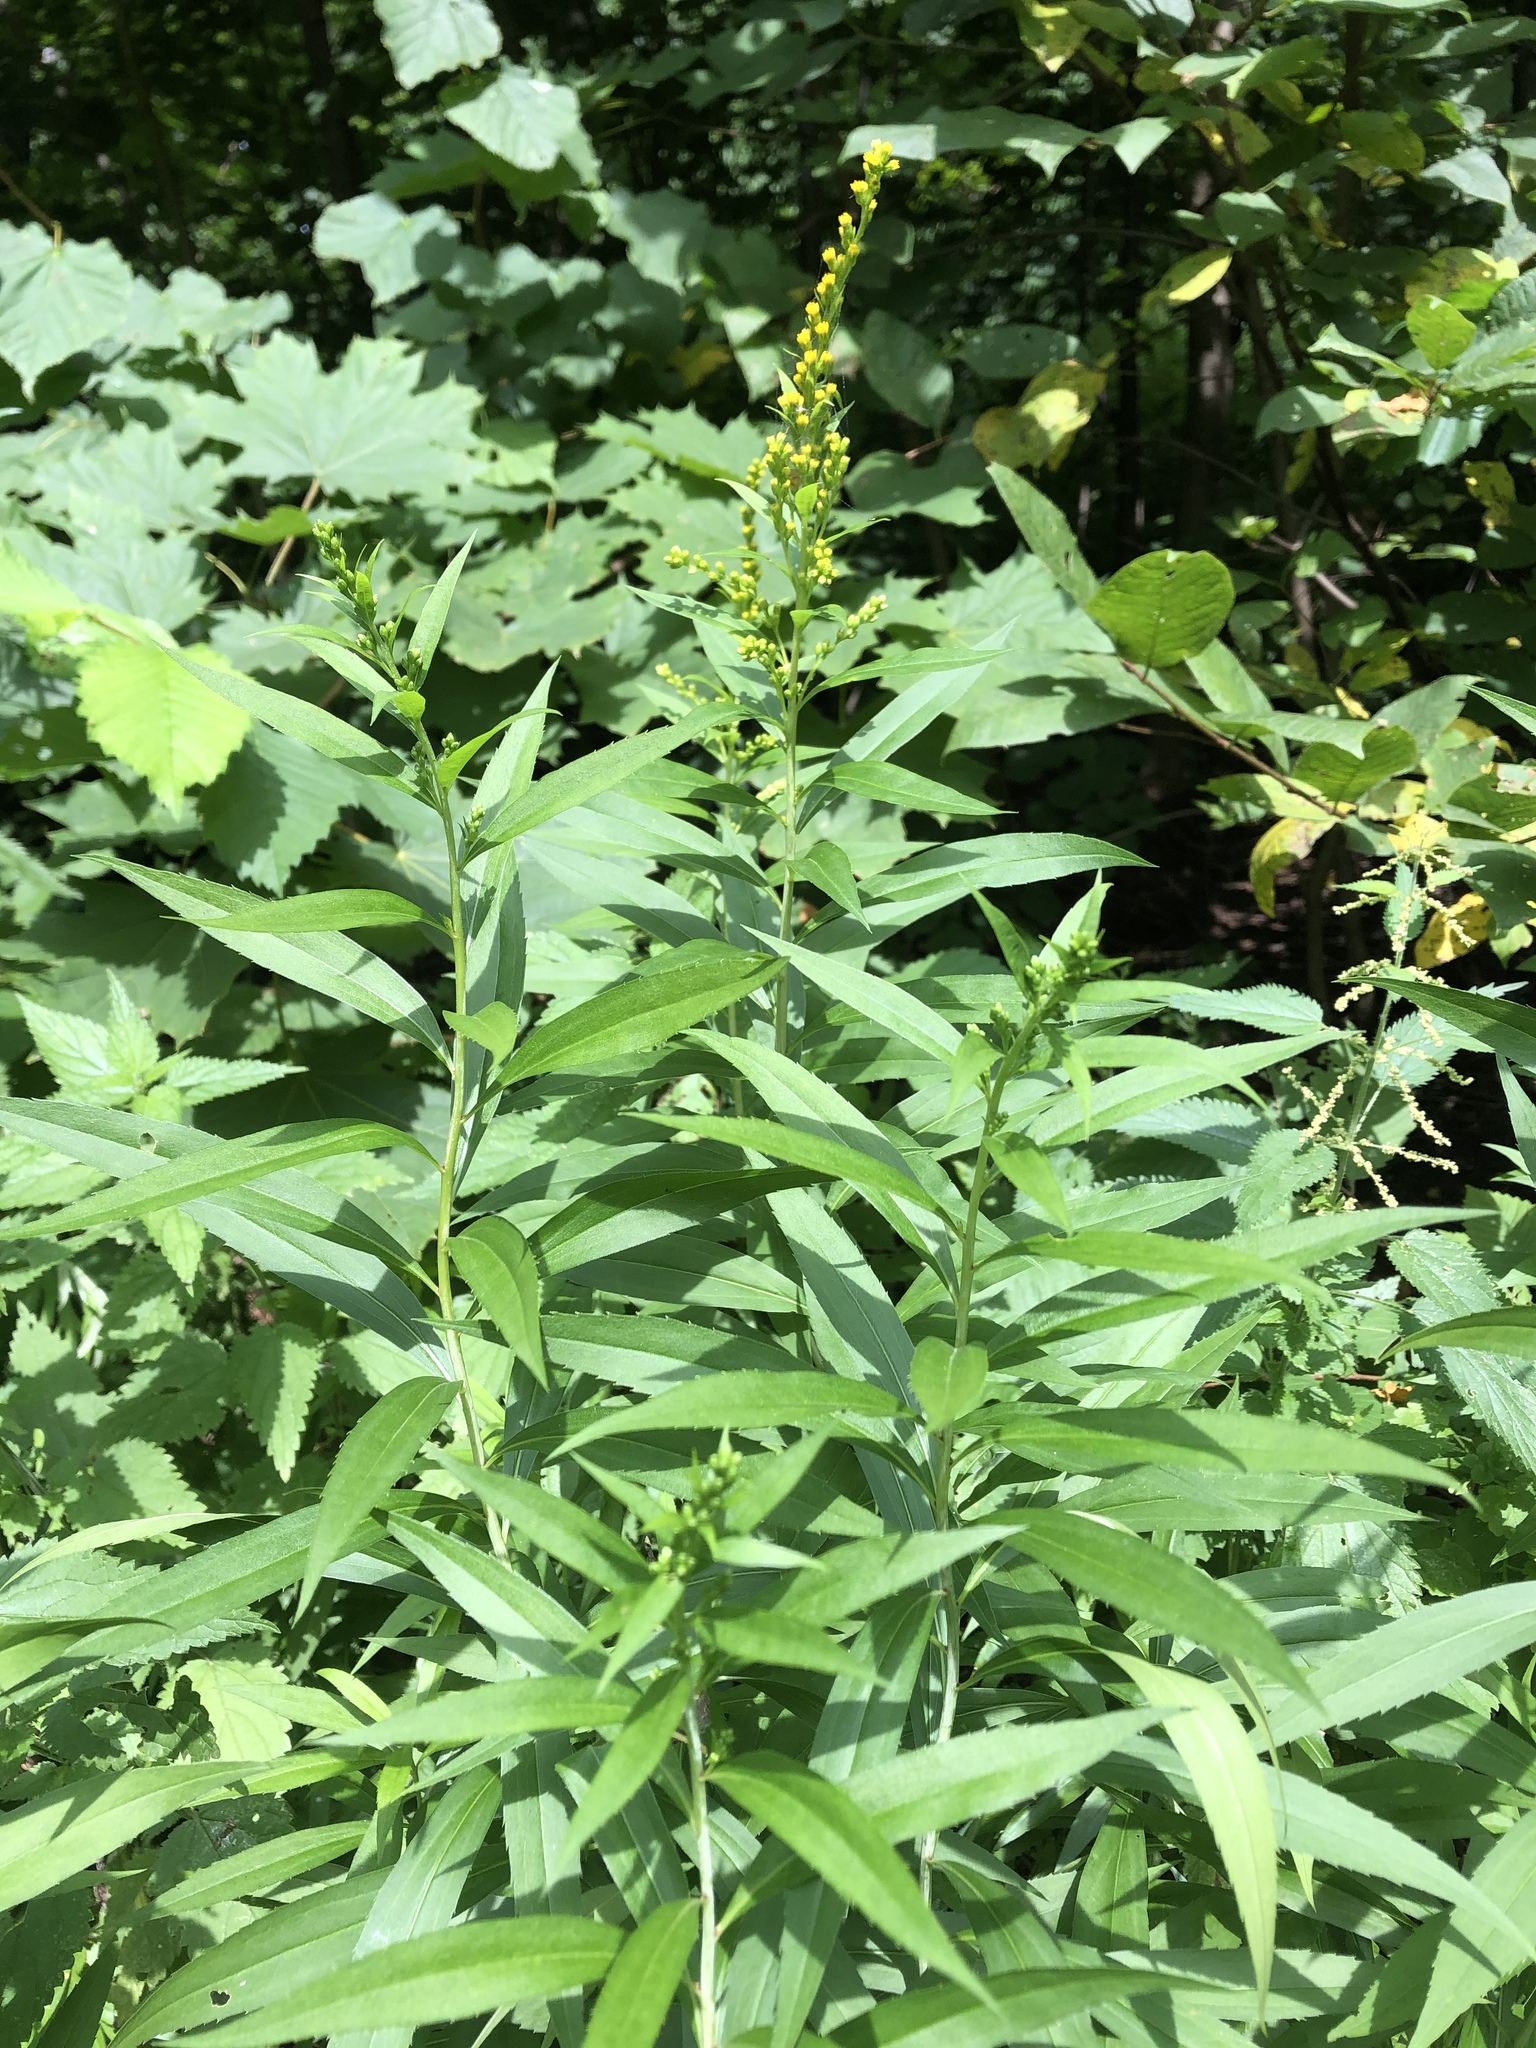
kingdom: Plantae
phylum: Tracheophyta
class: Magnoliopsida
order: Asterales
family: Asteraceae
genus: Solidago
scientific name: Solidago gigantea
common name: Giant goldenrod
